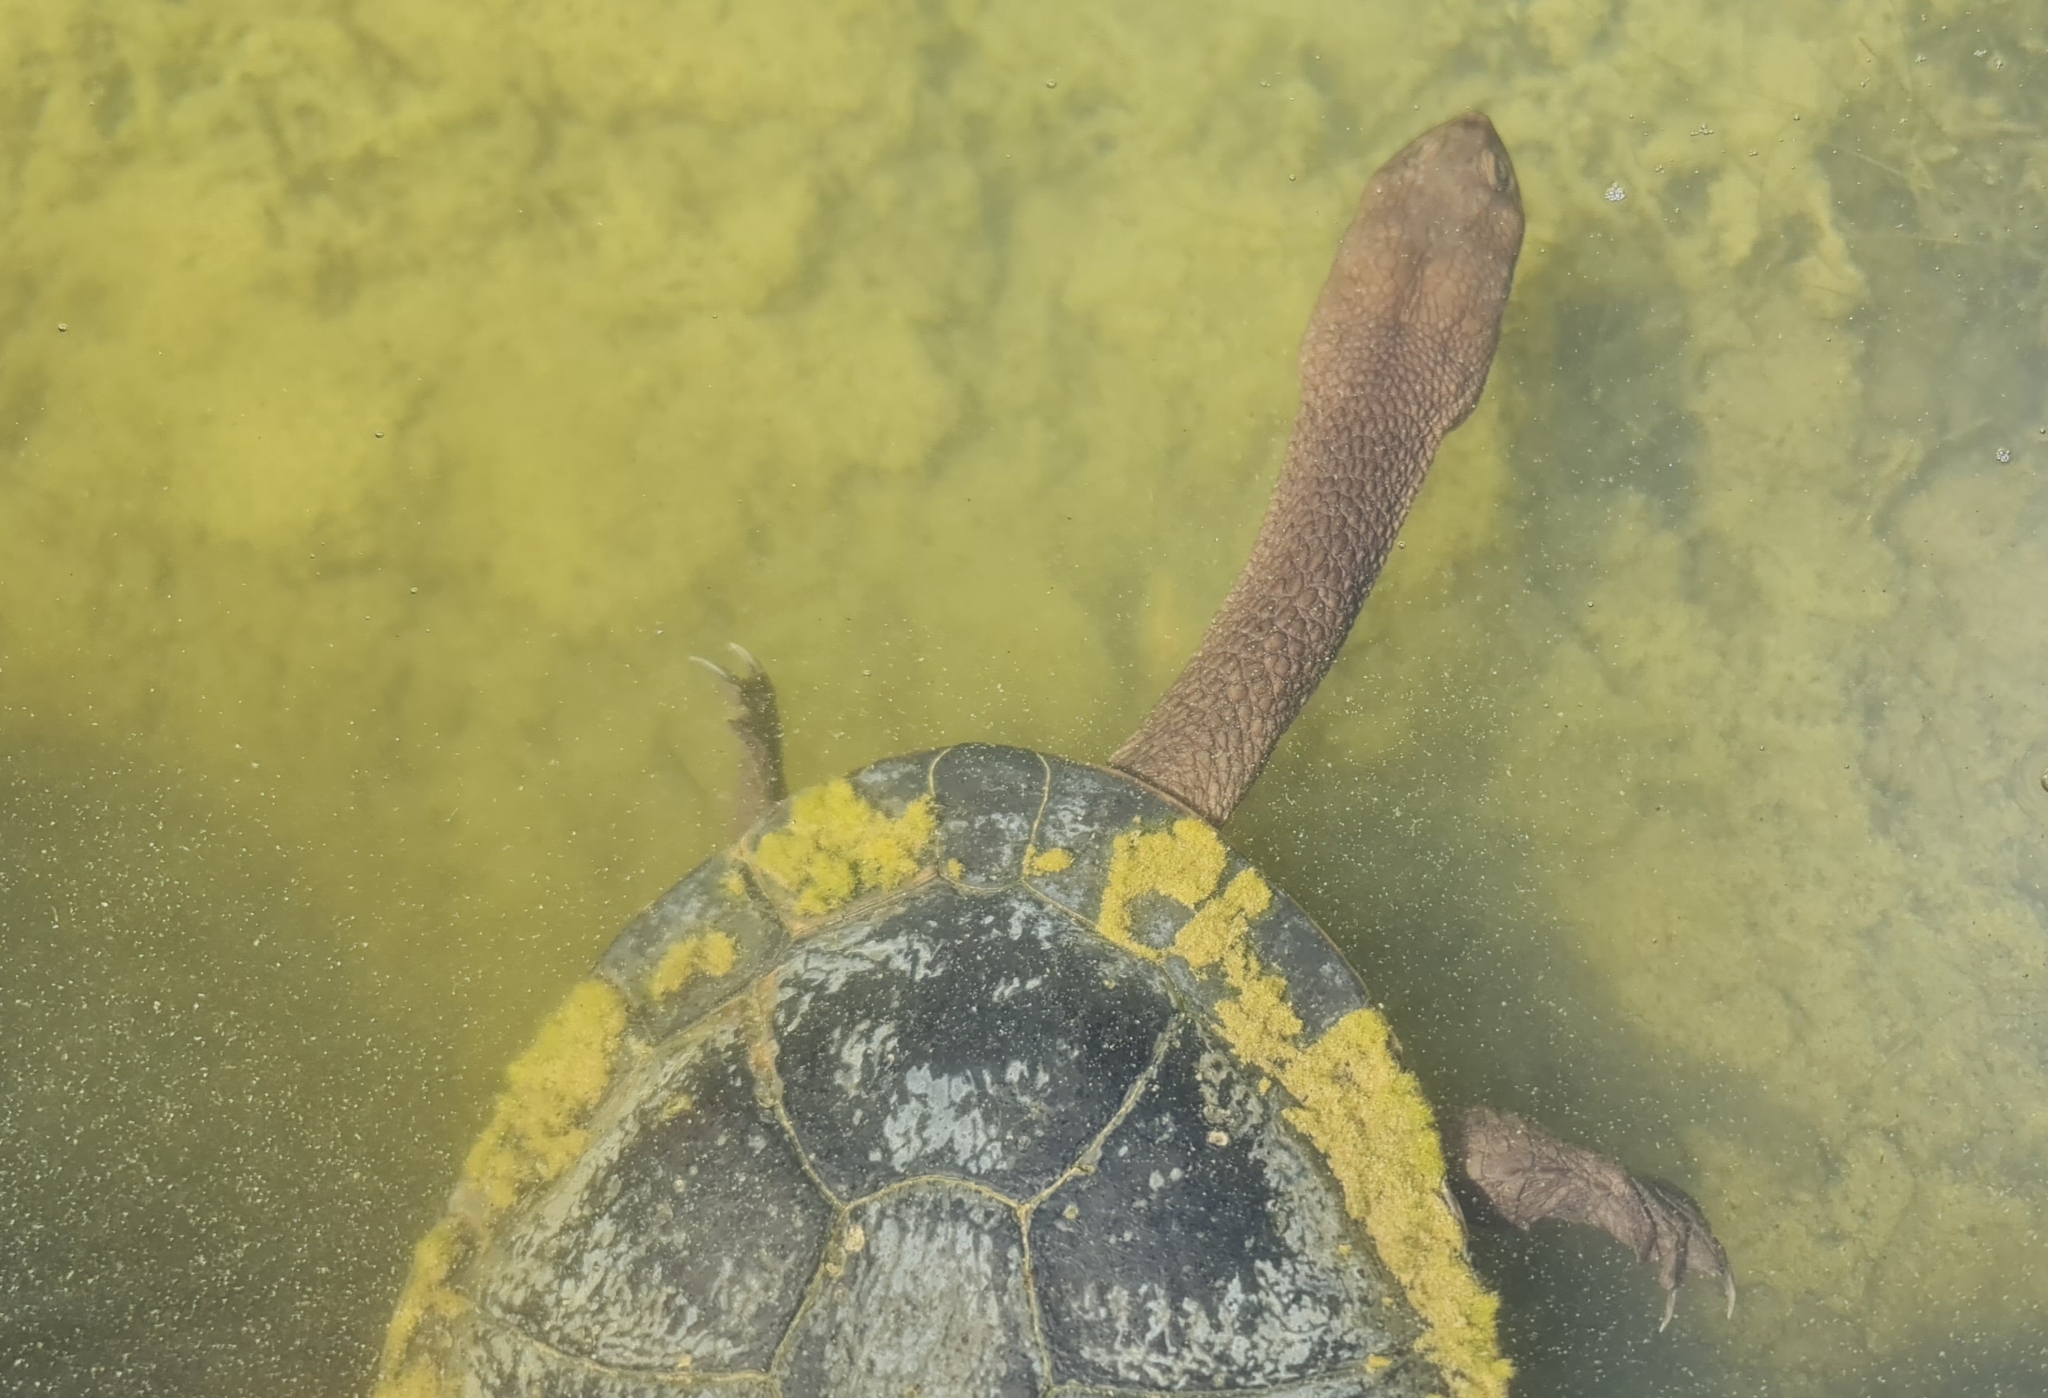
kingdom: Animalia
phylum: Chordata
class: Testudines
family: Chelidae
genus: Chelodina
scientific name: Chelodina longicollis
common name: Eastern snake-necked turtle
